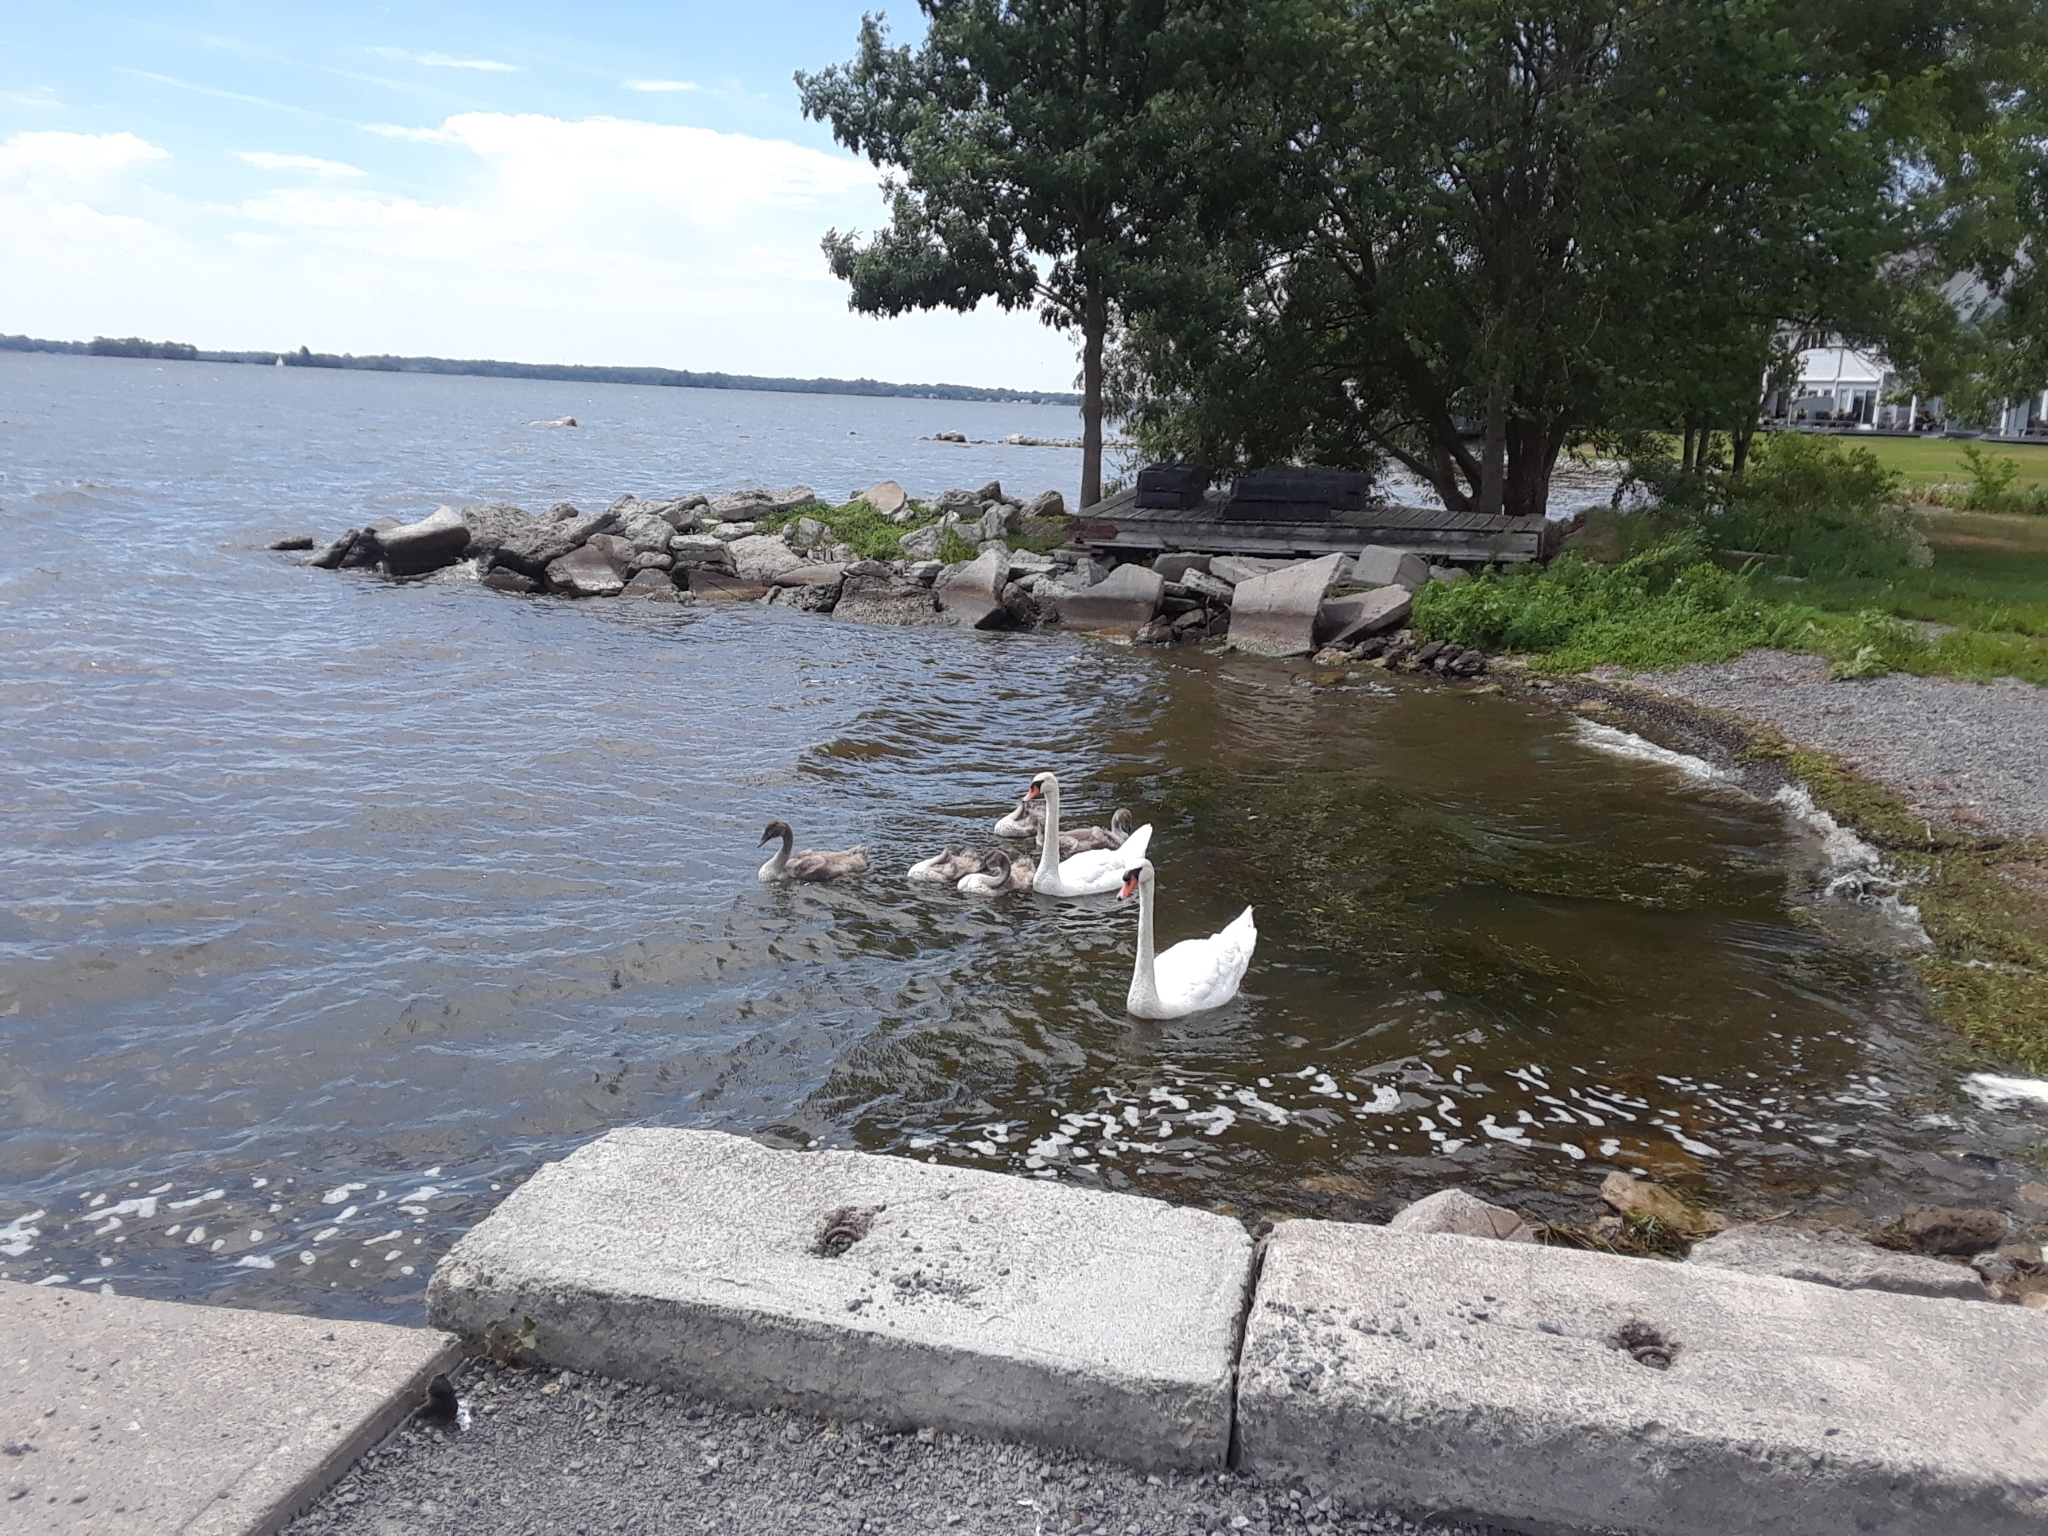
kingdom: Animalia
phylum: Chordata
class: Aves
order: Anseriformes
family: Anatidae
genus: Cygnus
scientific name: Cygnus olor
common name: Mute swan
